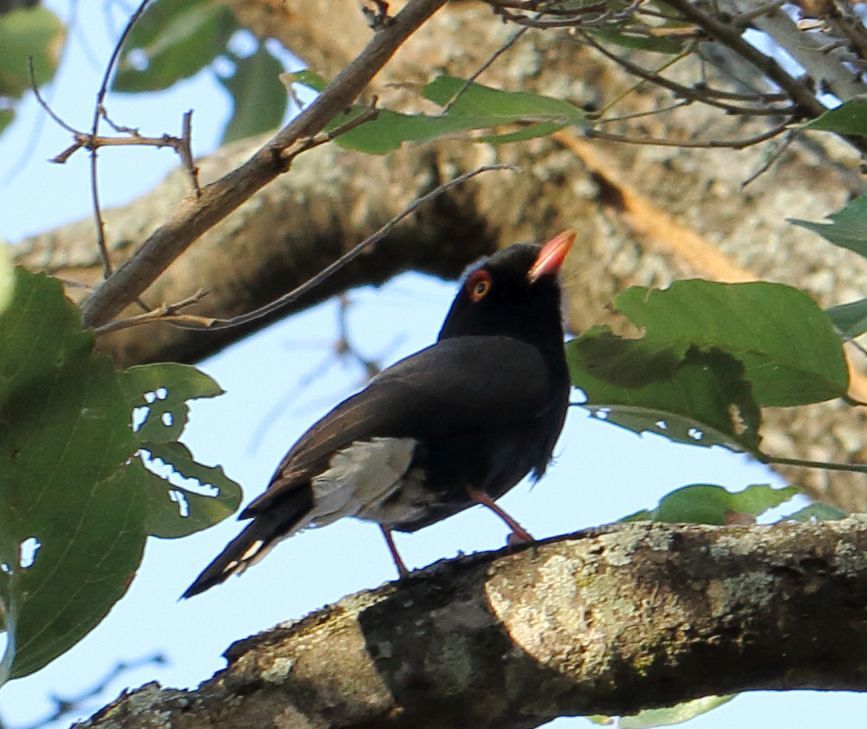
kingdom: Animalia
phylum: Chordata
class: Aves
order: Passeriformes
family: Prionopidae
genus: Prionops
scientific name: Prionops retzii
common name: Retz's helmetshrike
